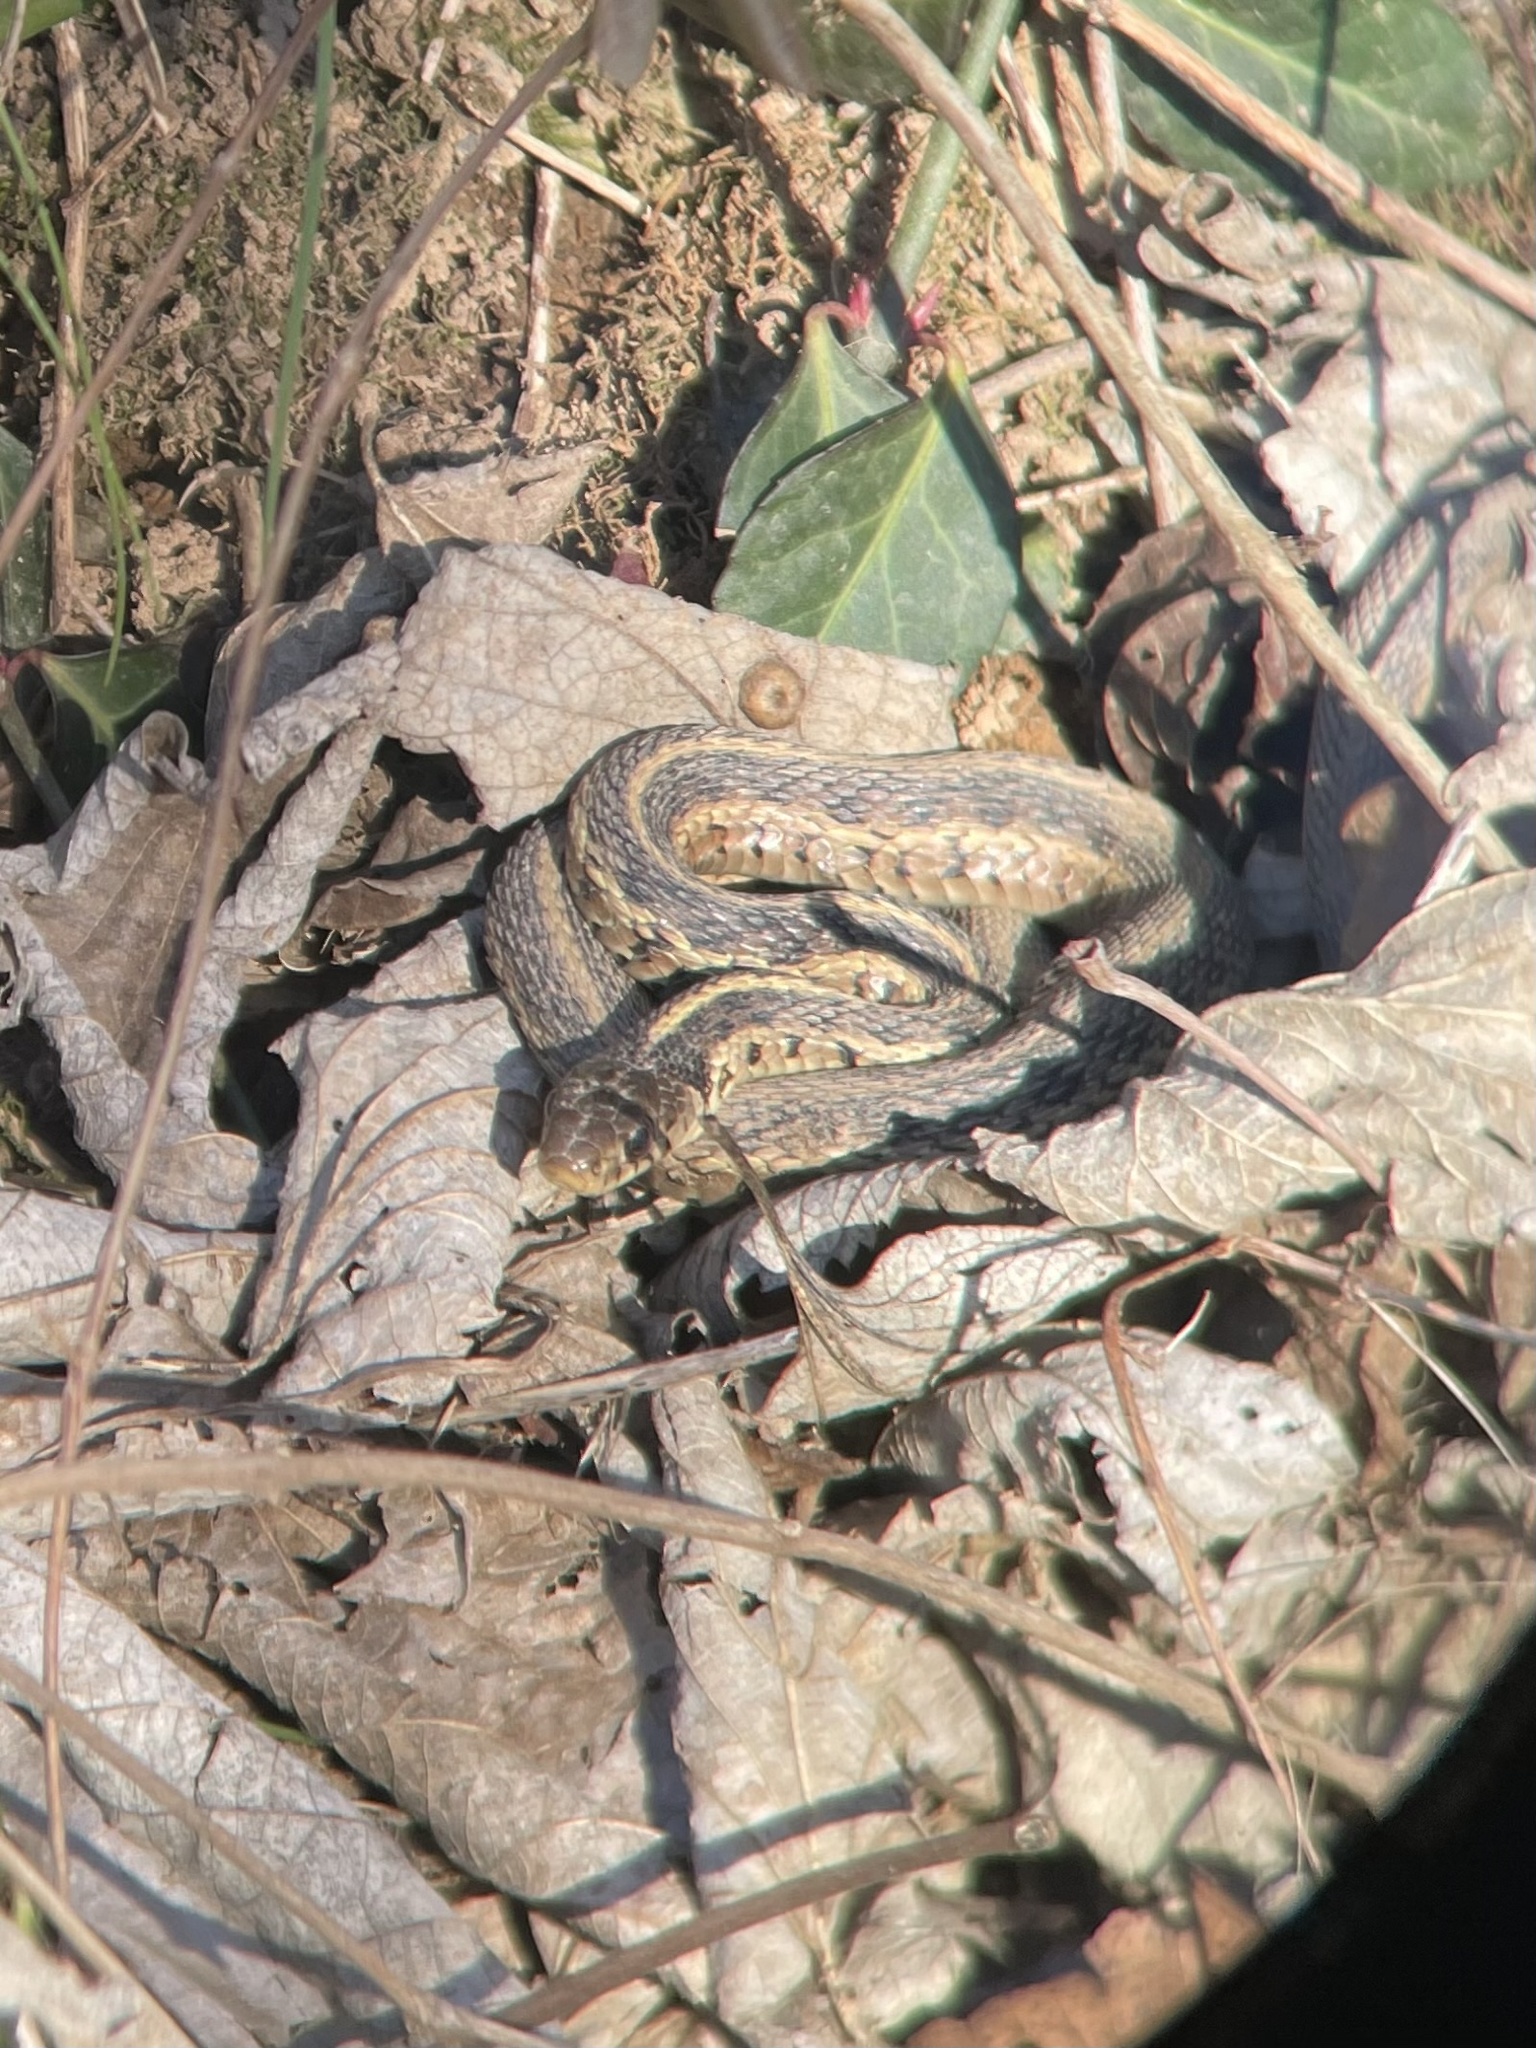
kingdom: Animalia
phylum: Chordata
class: Squamata
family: Colubridae
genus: Thamnophis
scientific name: Thamnophis sirtalis
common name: Common garter snake
